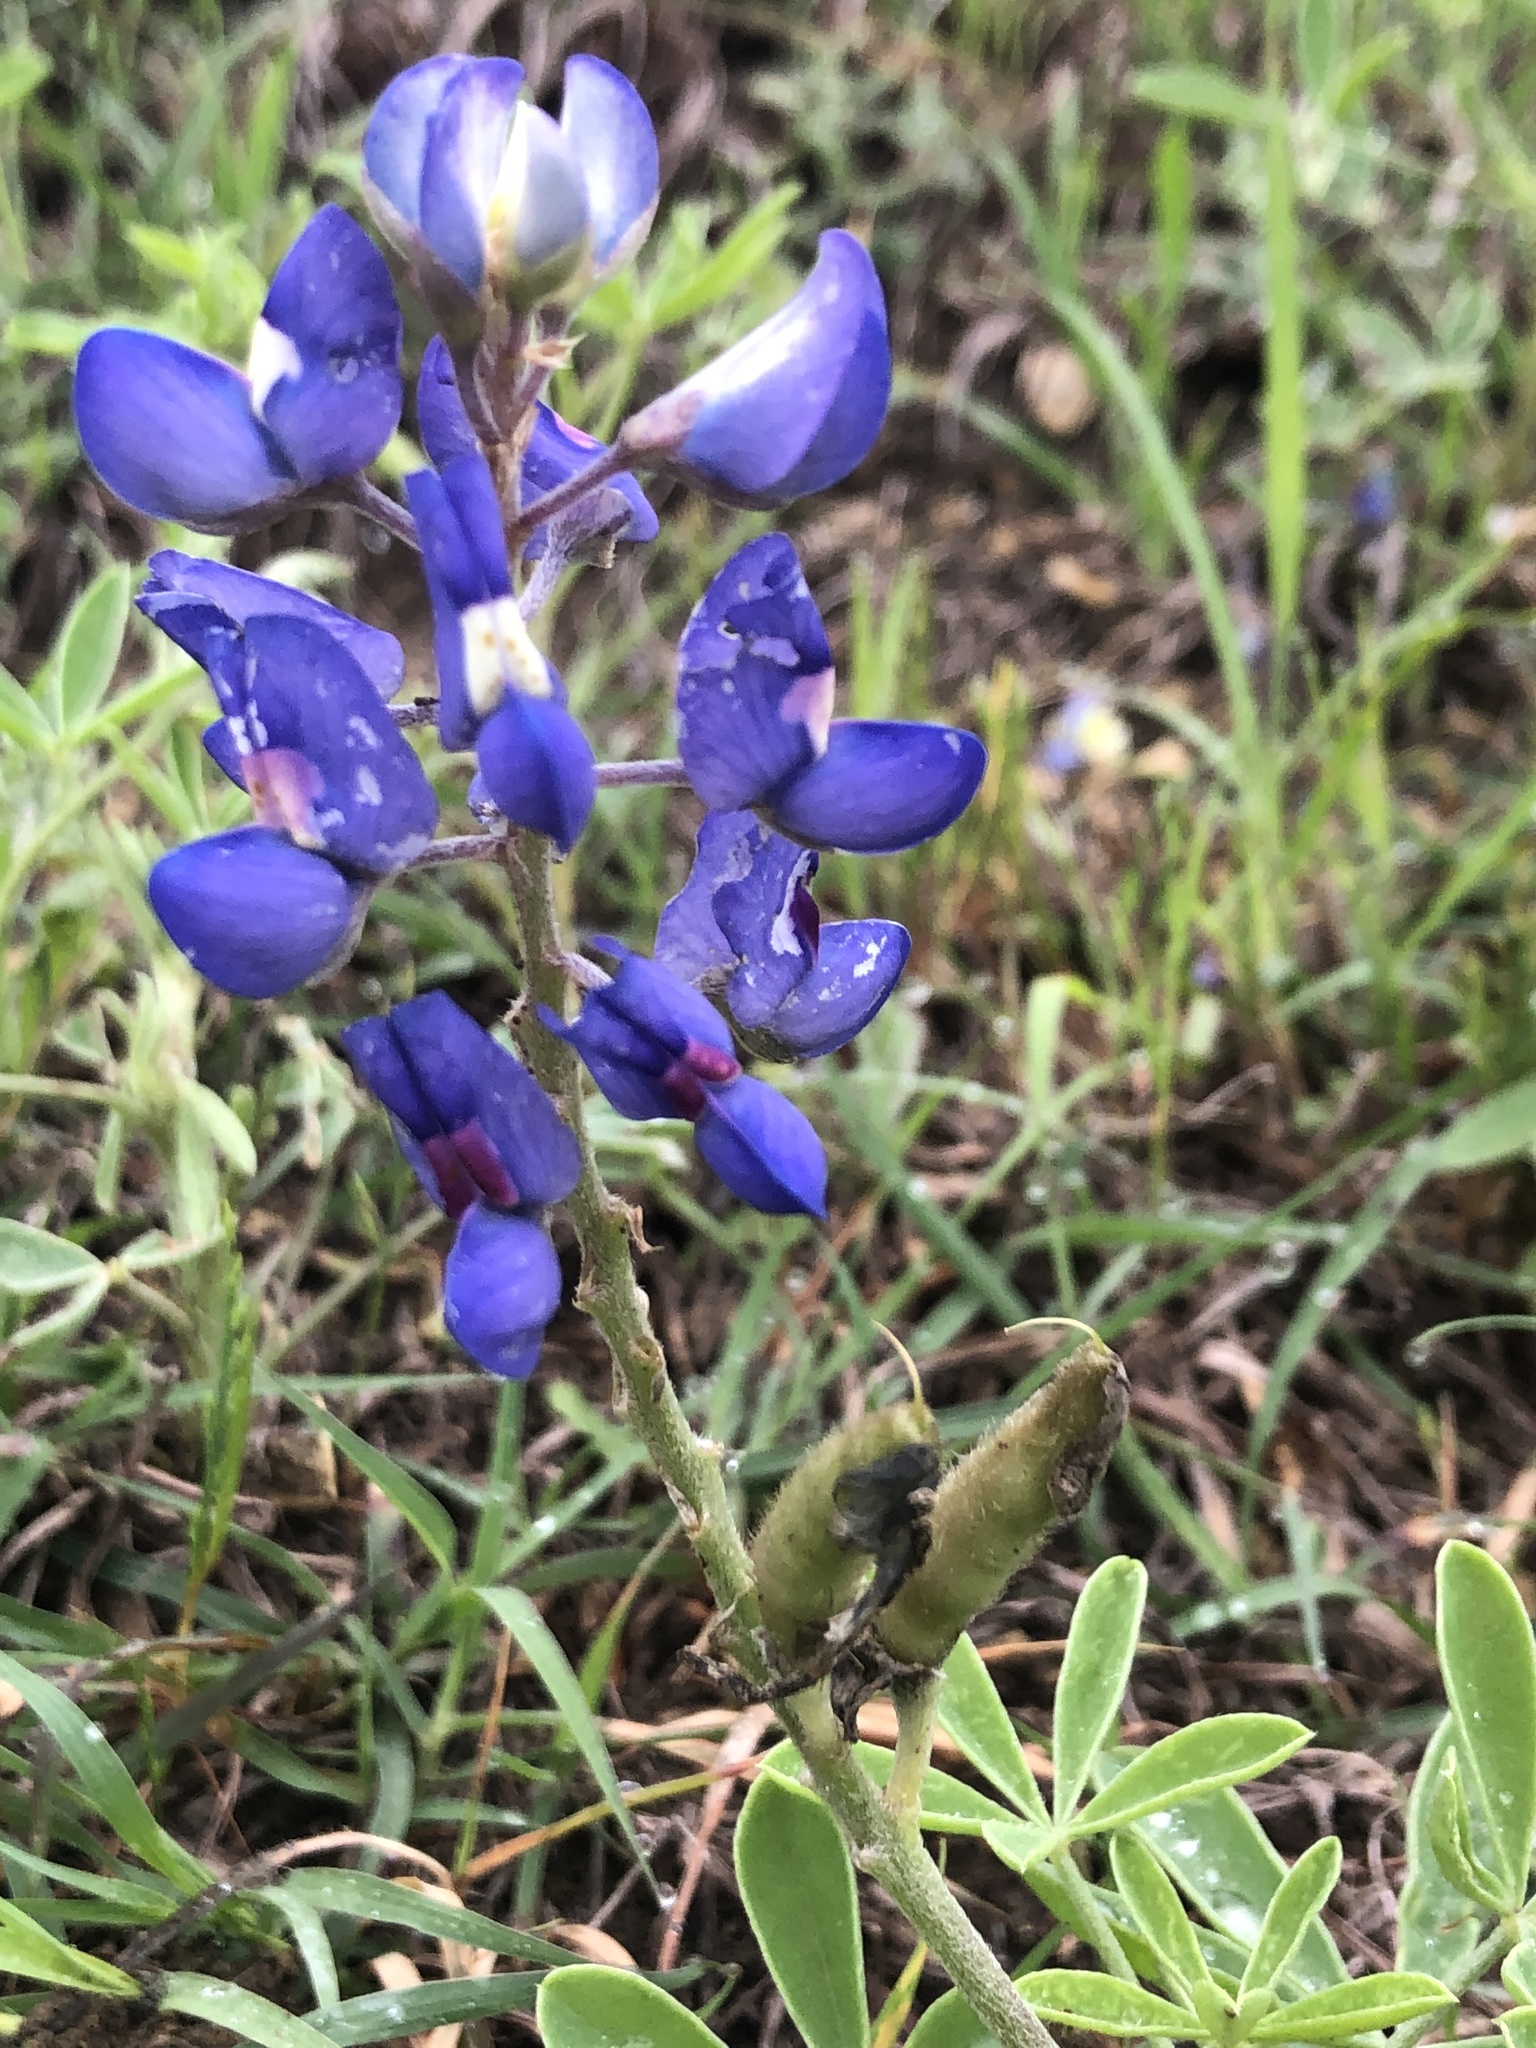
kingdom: Plantae
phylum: Tracheophyta
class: Magnoliopsida
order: Fabales
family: Fabaceae
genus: Lupinus
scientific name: Lupinus texensis
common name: Texas bluebonnet
